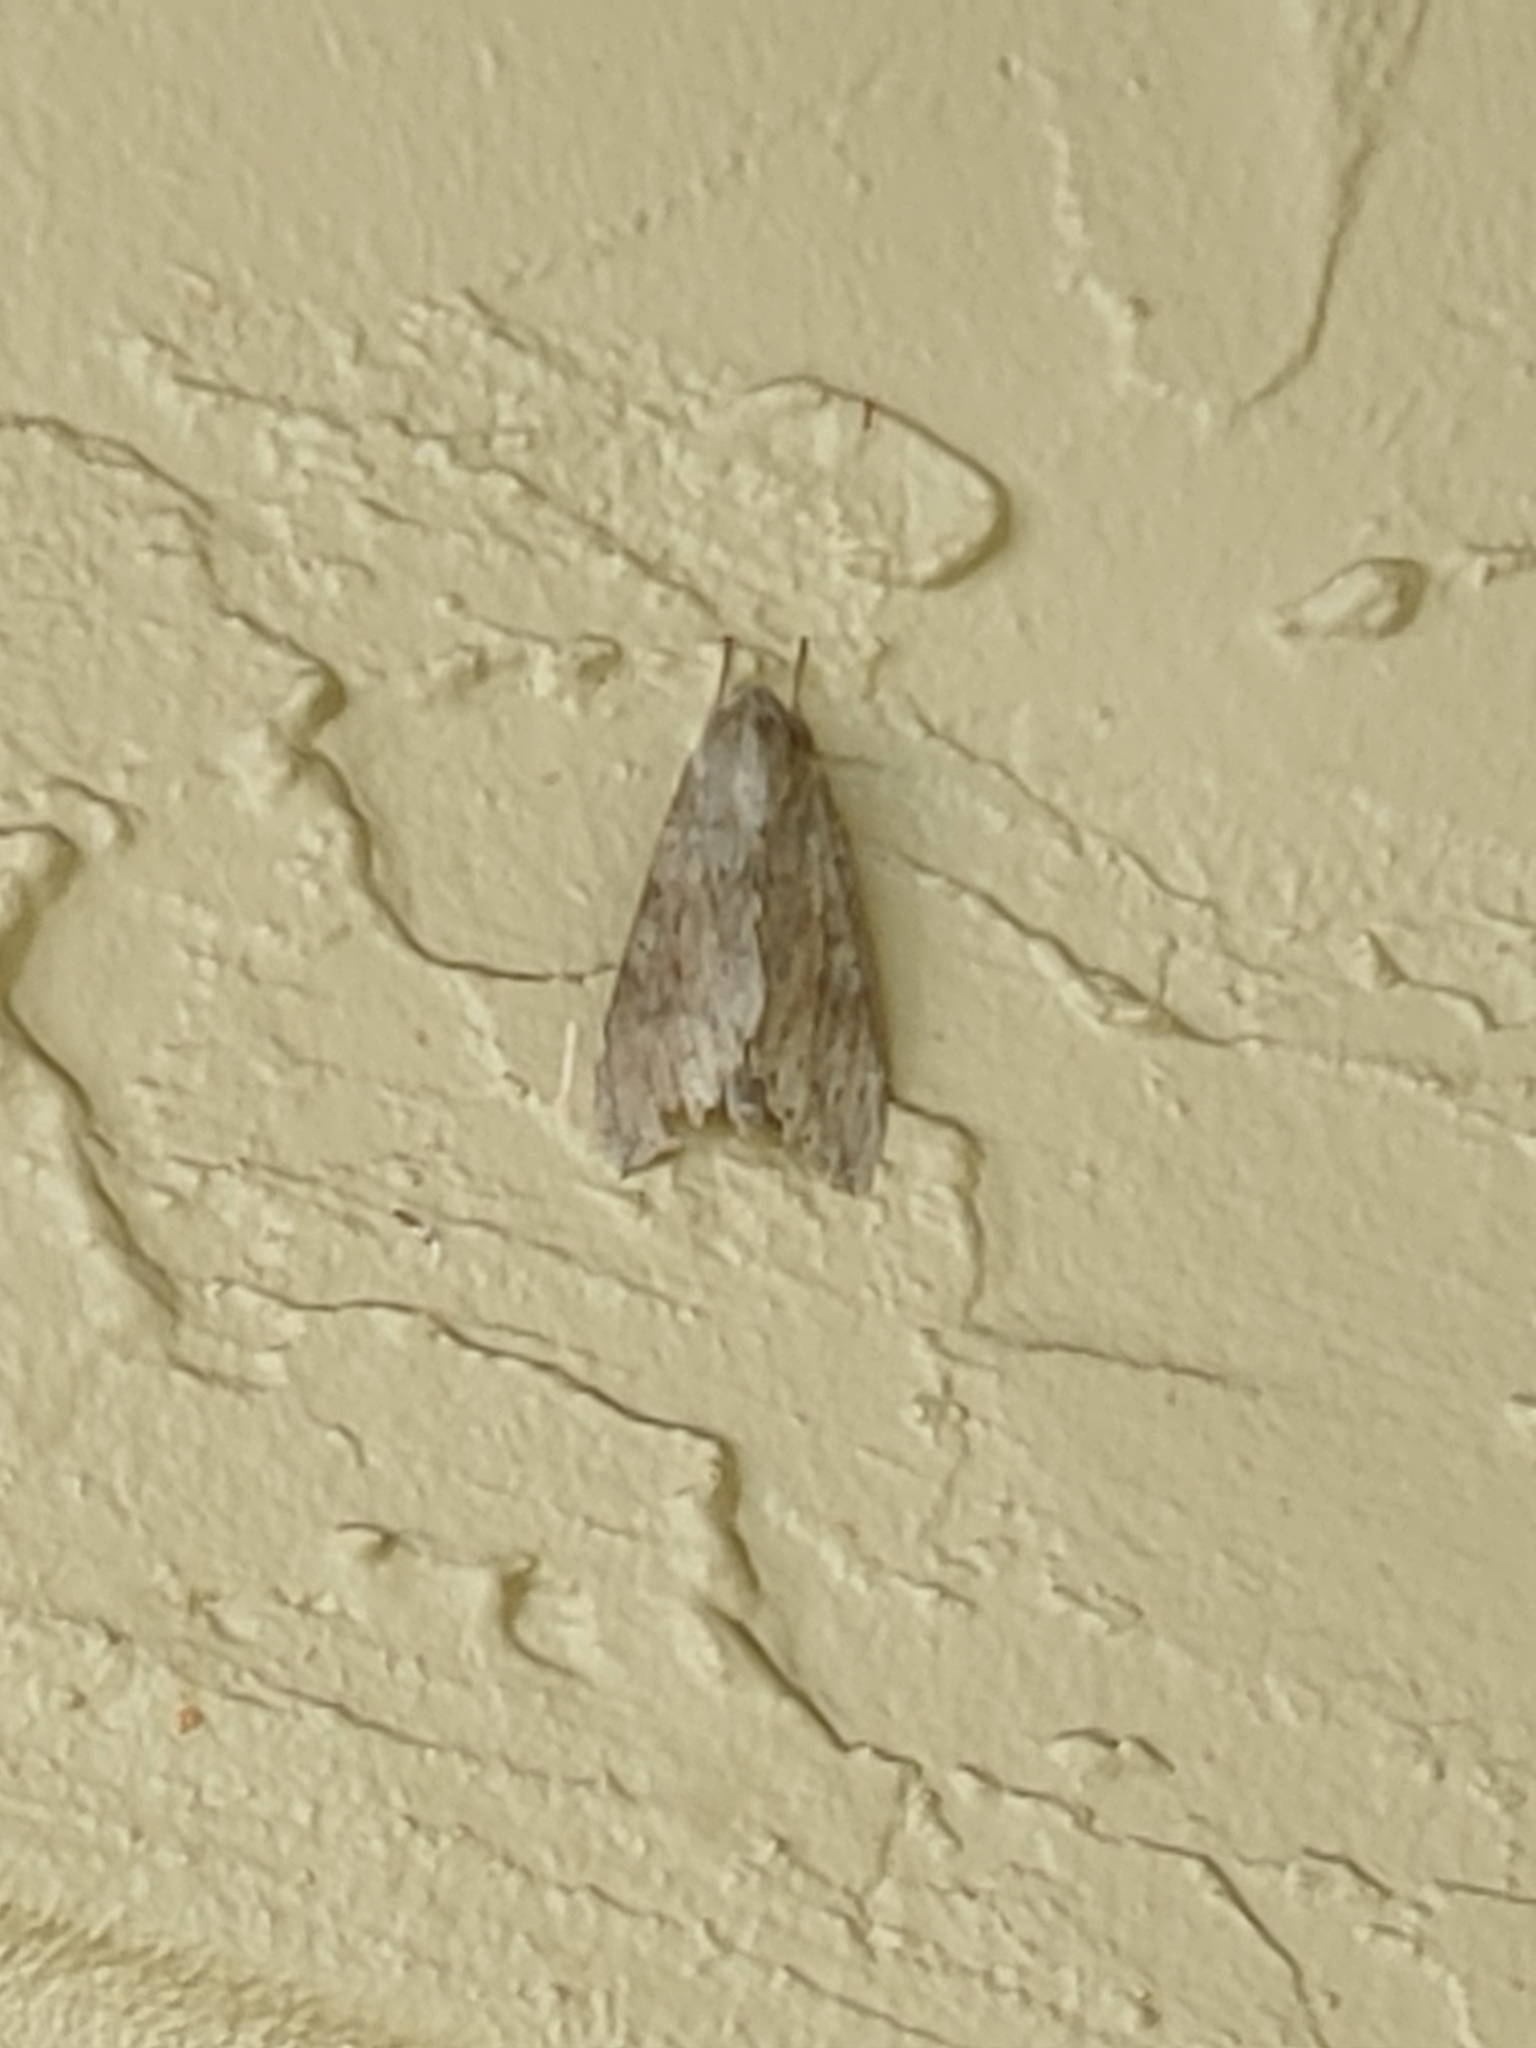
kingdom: Animalia
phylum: Arthropoda
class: Insecta
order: Lepidoptera
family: Sphingidae
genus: Erinnyis
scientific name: Erinnyis ello
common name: Ello sphinx
